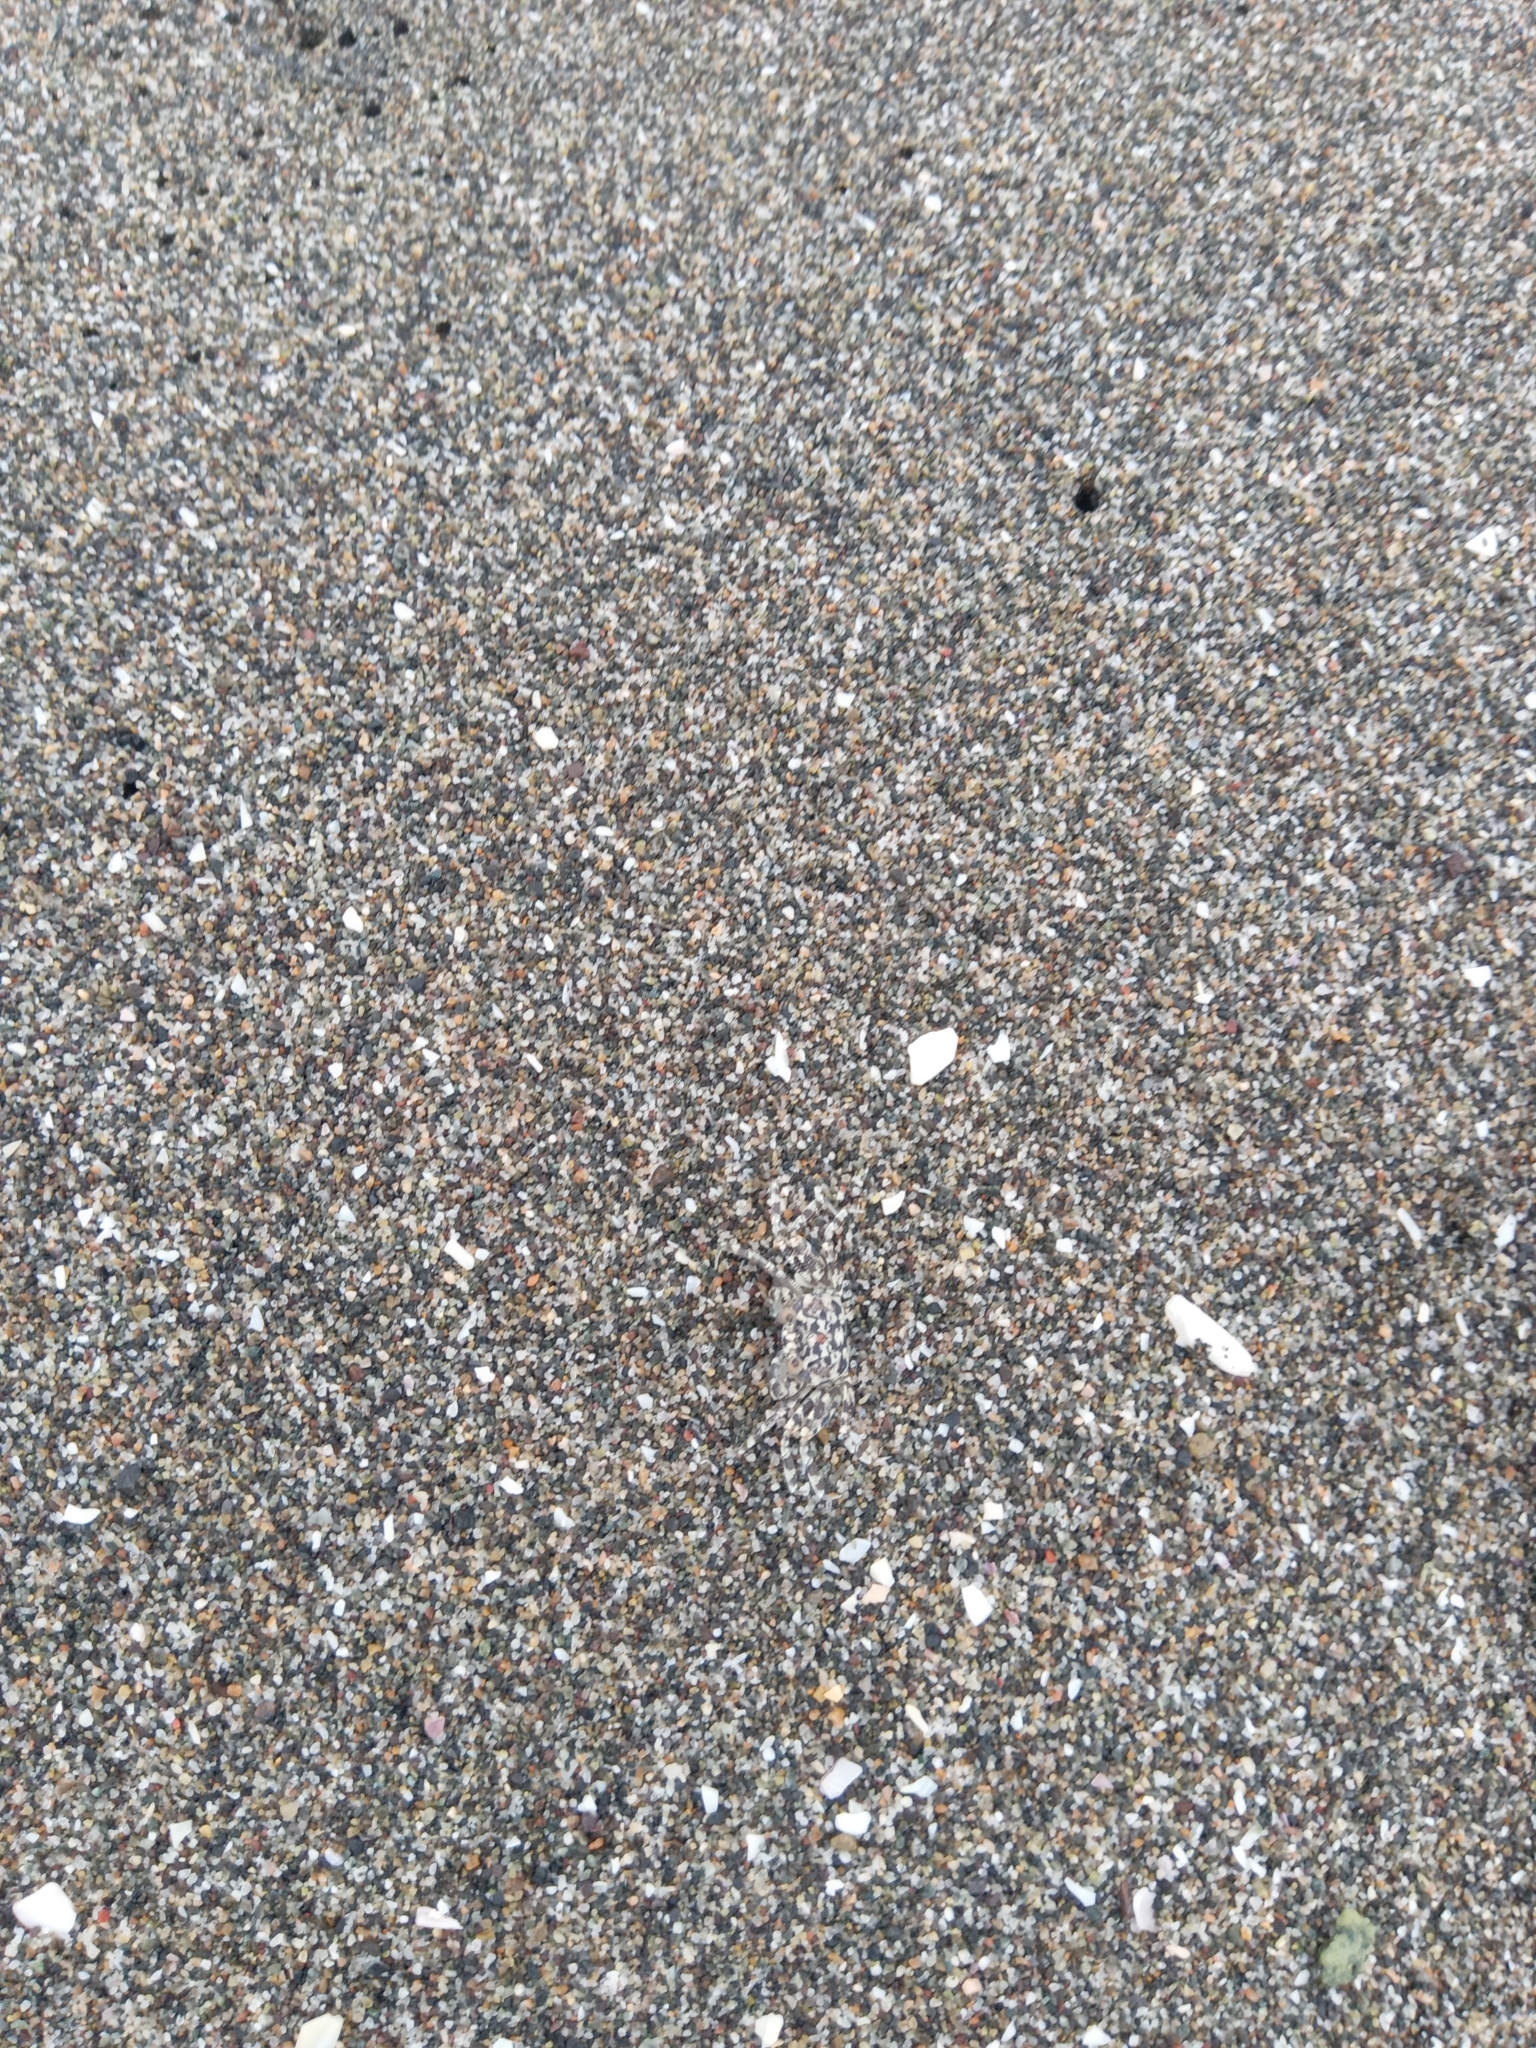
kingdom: Animalia
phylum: Arthropoda
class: Malacostraca
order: Decapoda
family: Ocypodidae
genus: Ocypode
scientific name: Ocypode gaudichaudii
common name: Pacific ghost crab
